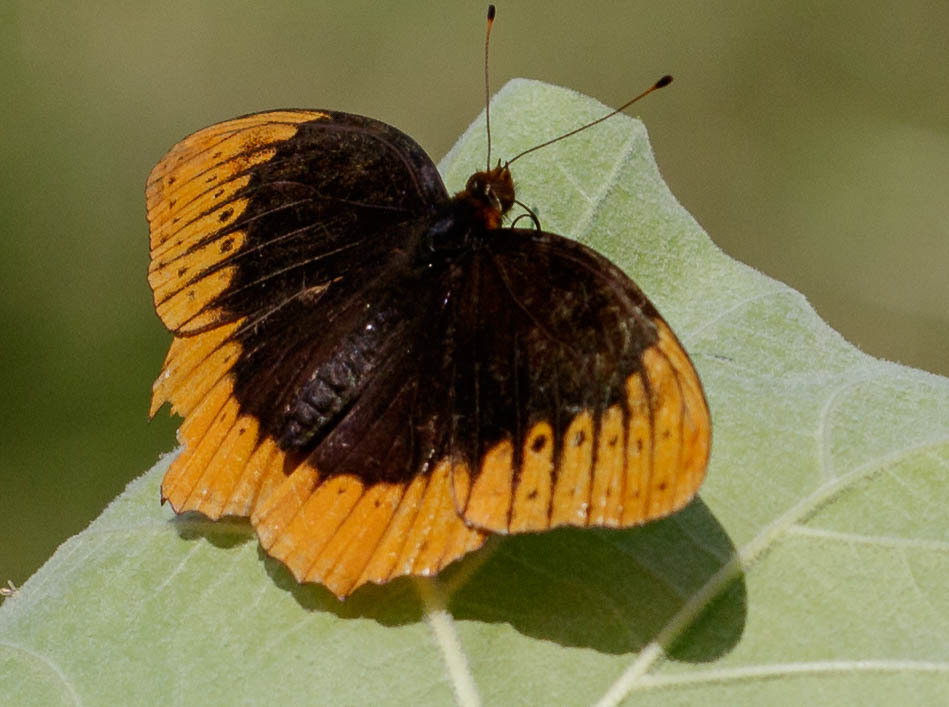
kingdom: Animalia
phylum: Arthropoda
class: Insecta
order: Lepidoptera
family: Nymphalidae
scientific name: Nymphalidae
